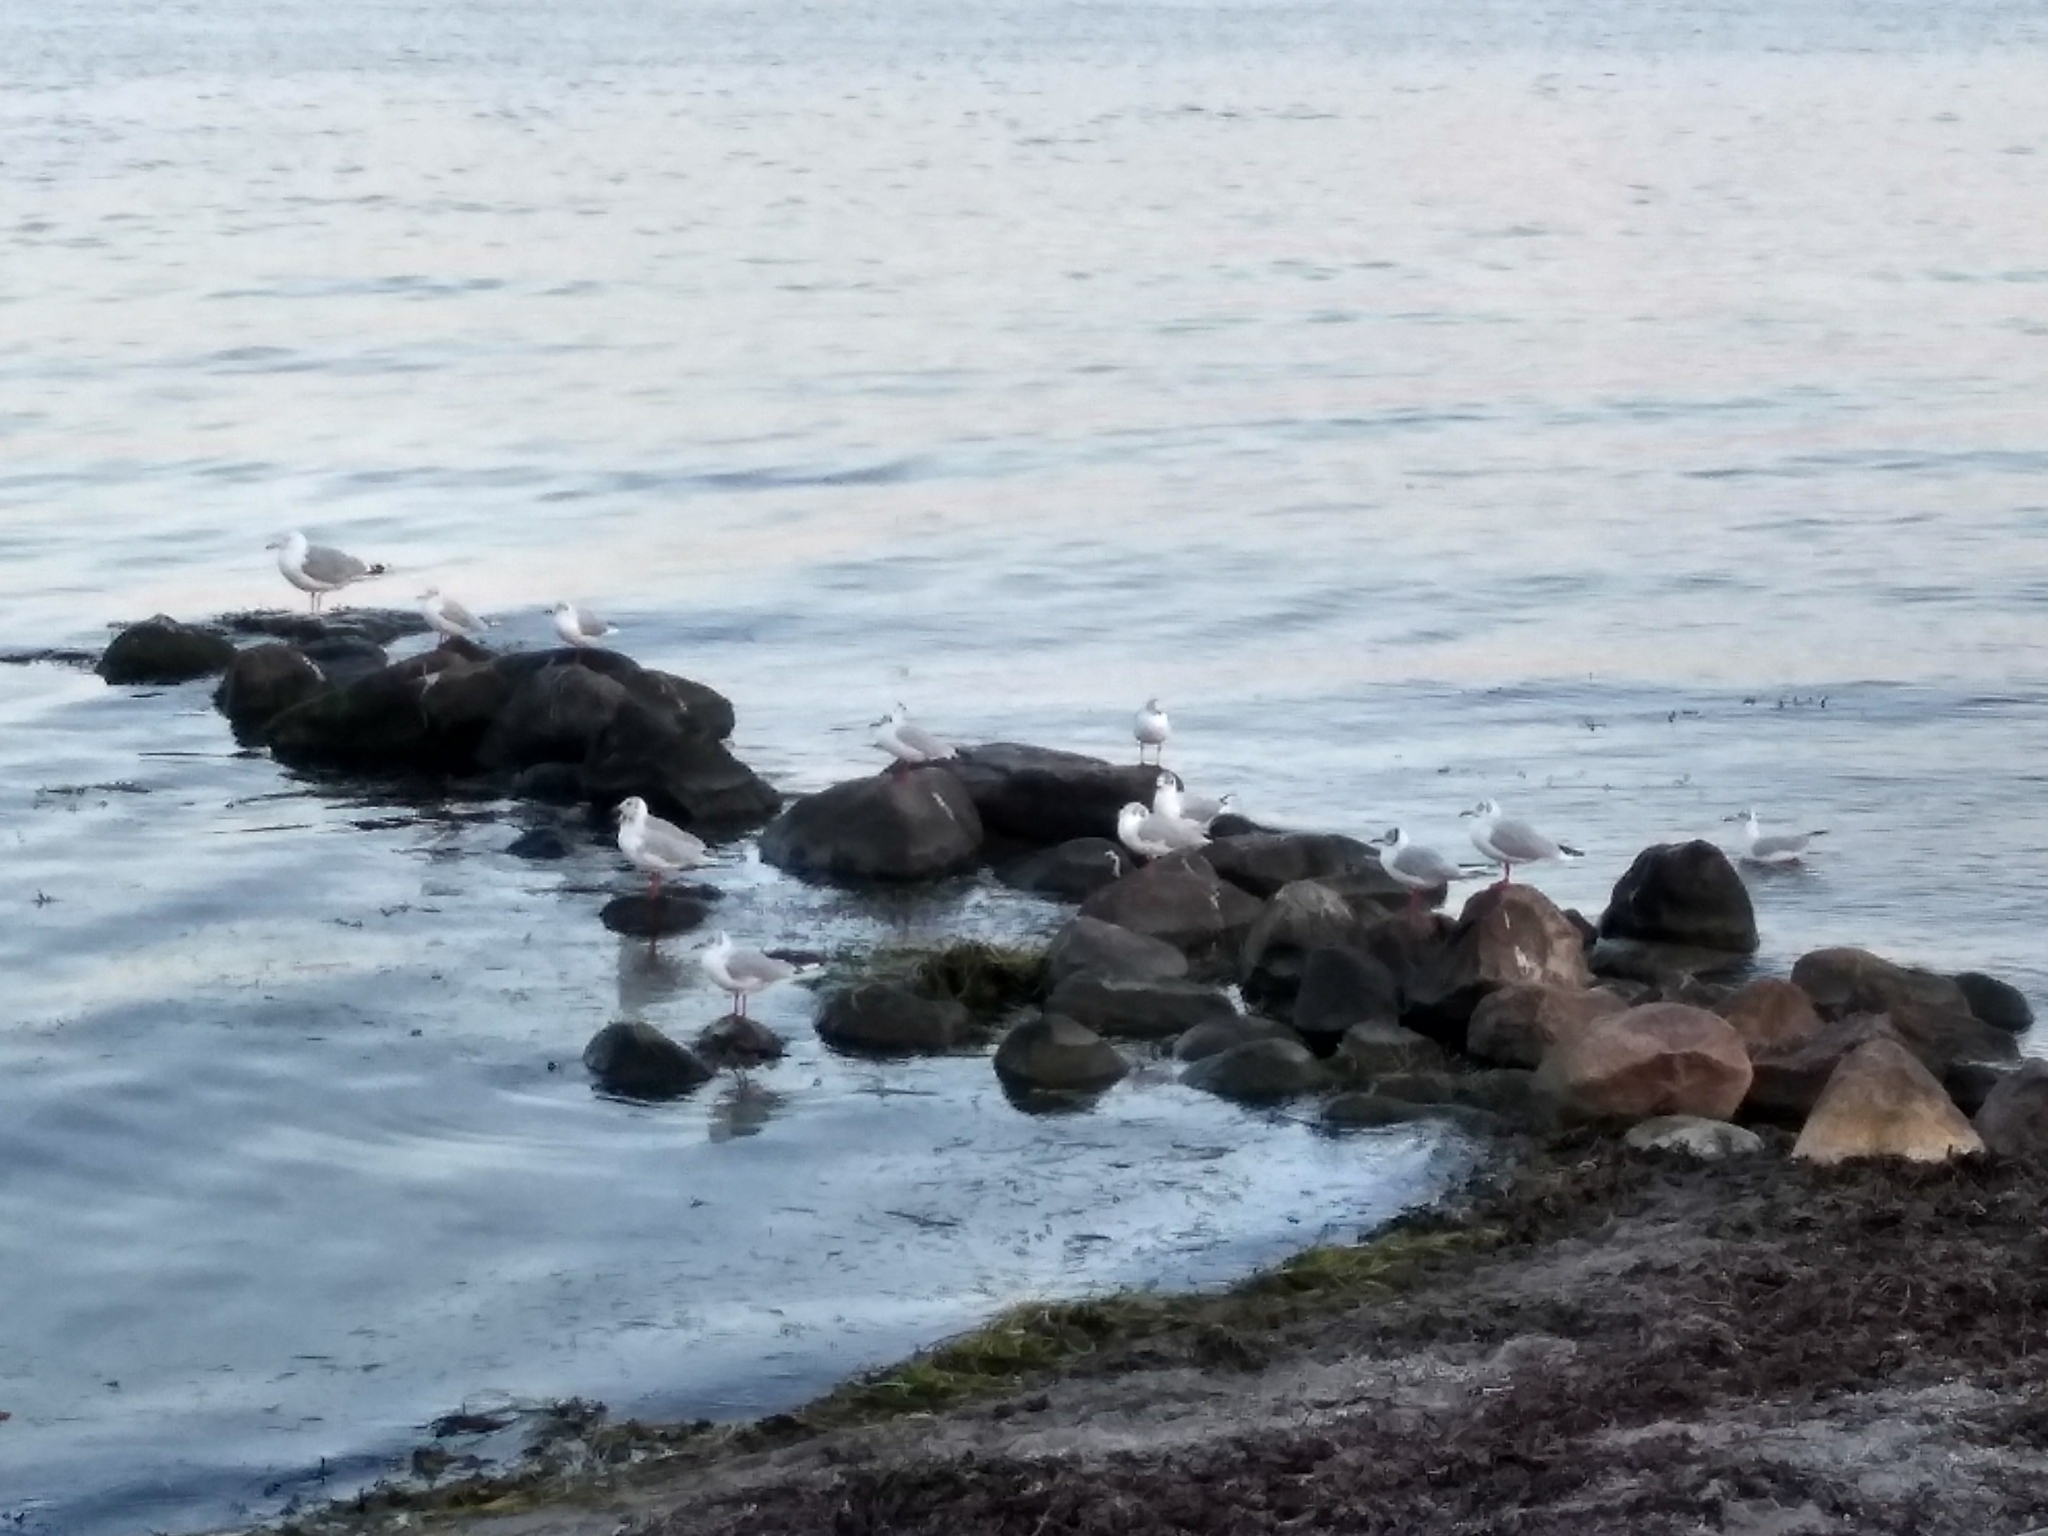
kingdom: Animalia
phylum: Chordata
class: Aves
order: Charadriiformes
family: Laridae
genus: Chroicocephalus
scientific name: Chroicocephalus ridibundus
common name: Black-headed gull
